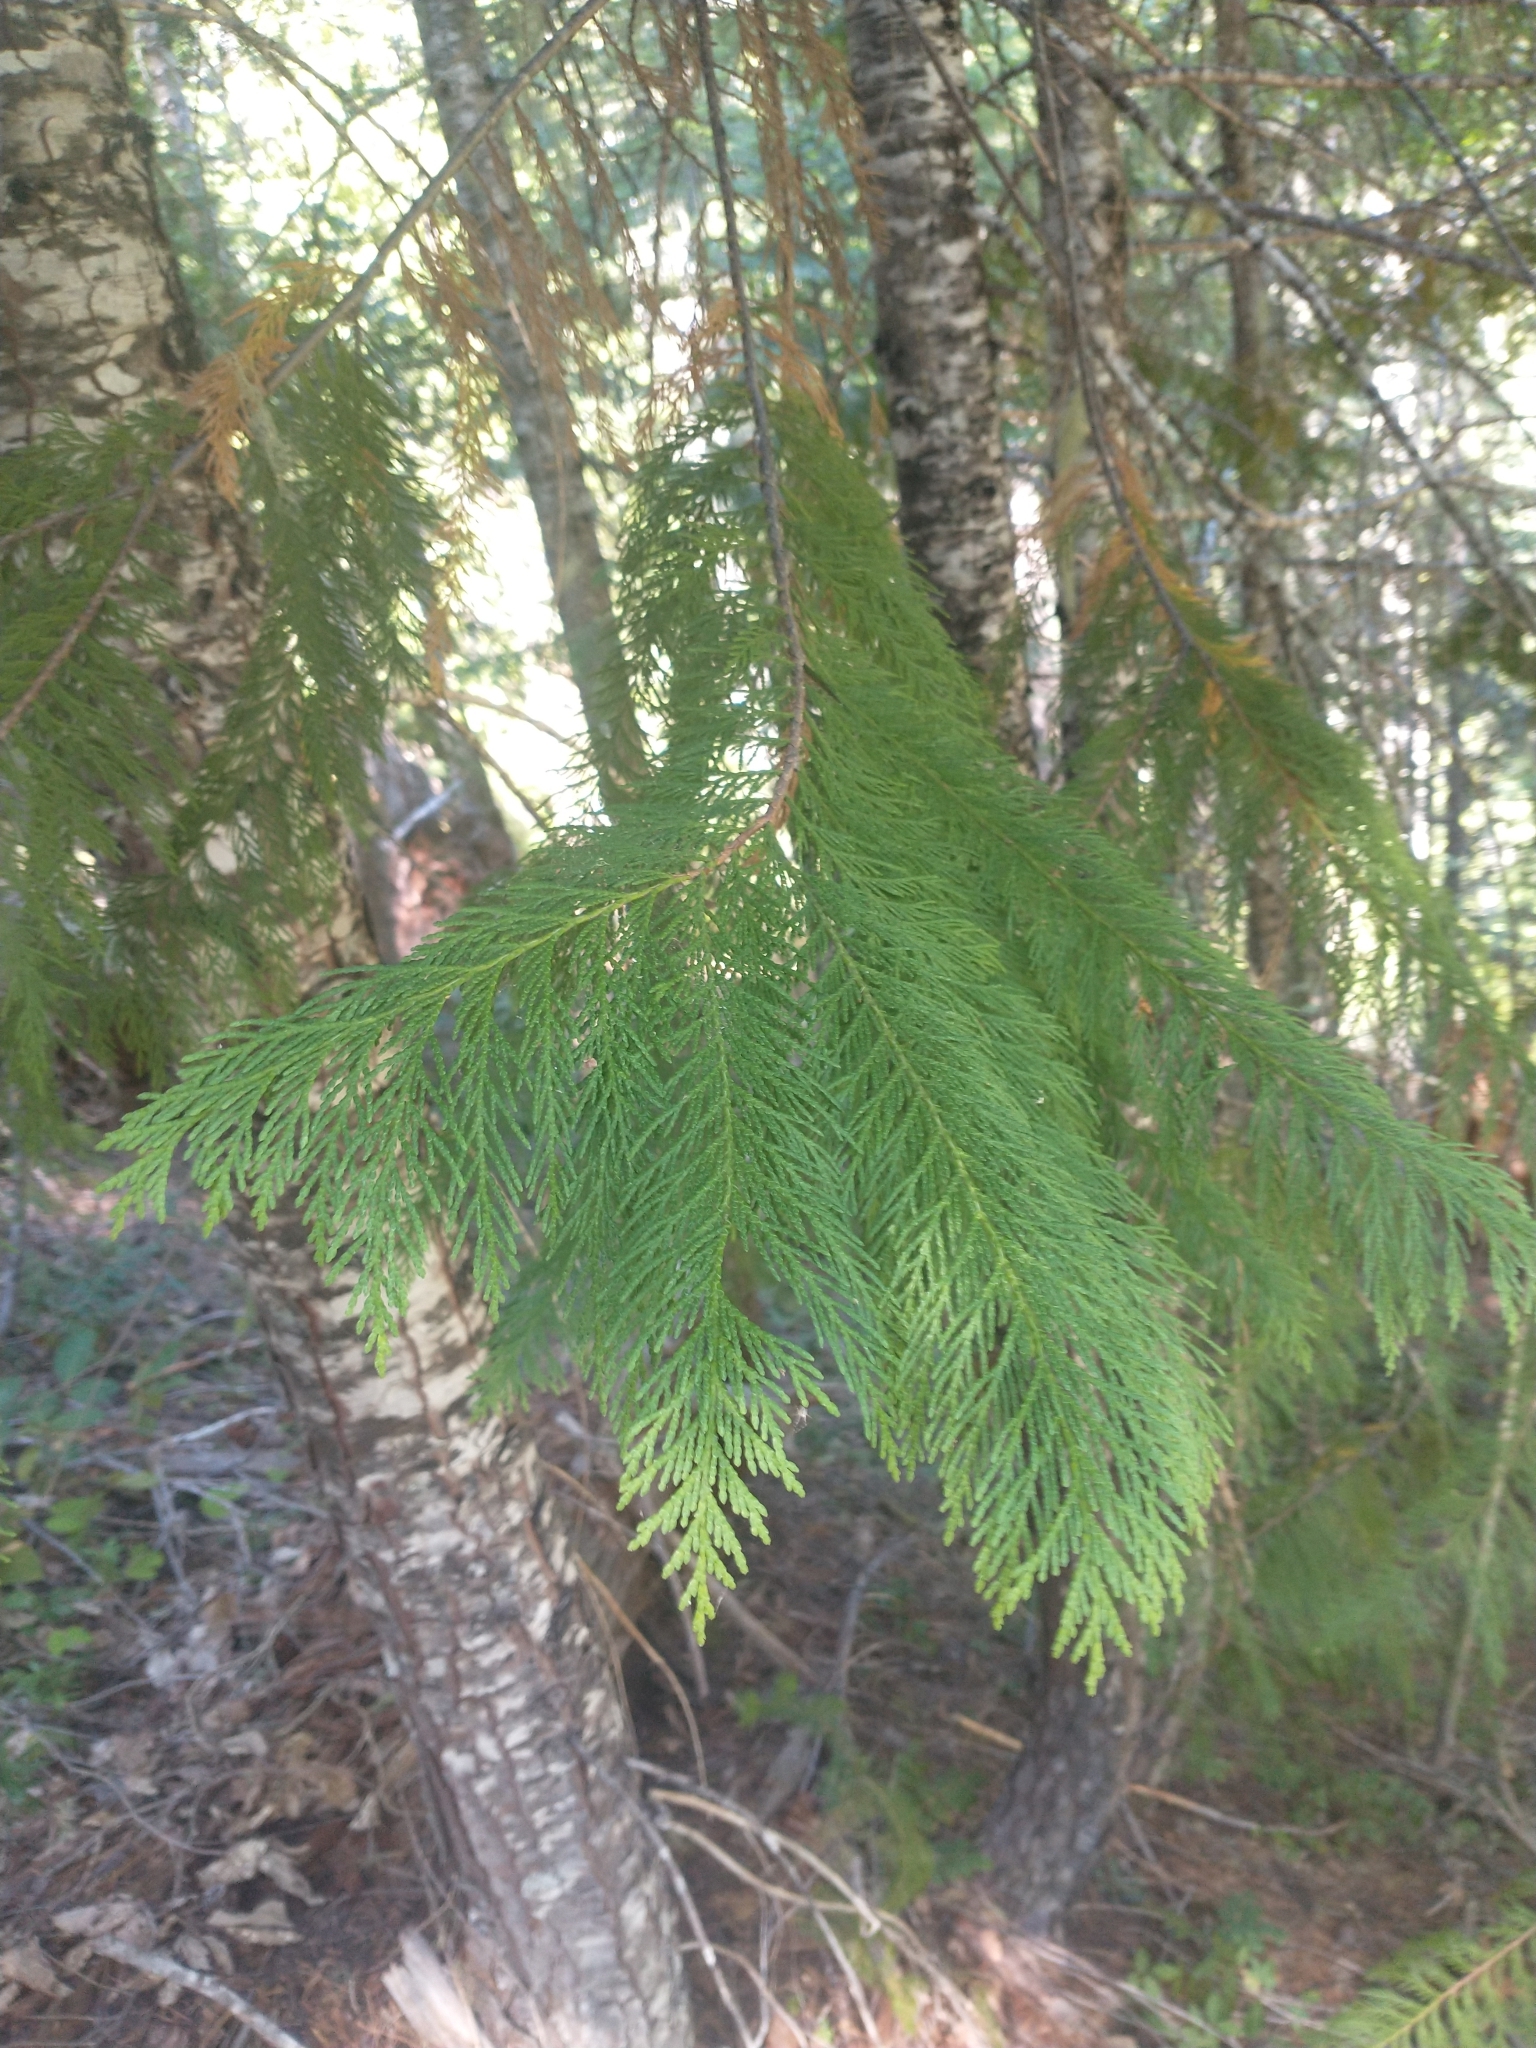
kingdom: Plantae
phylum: Tracheophyta
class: Pinopsida
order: Pinales
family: Cupressaceae
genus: Chamaecyparis
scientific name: Chamaecyparis lawsoniana
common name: Lawson's cypress
